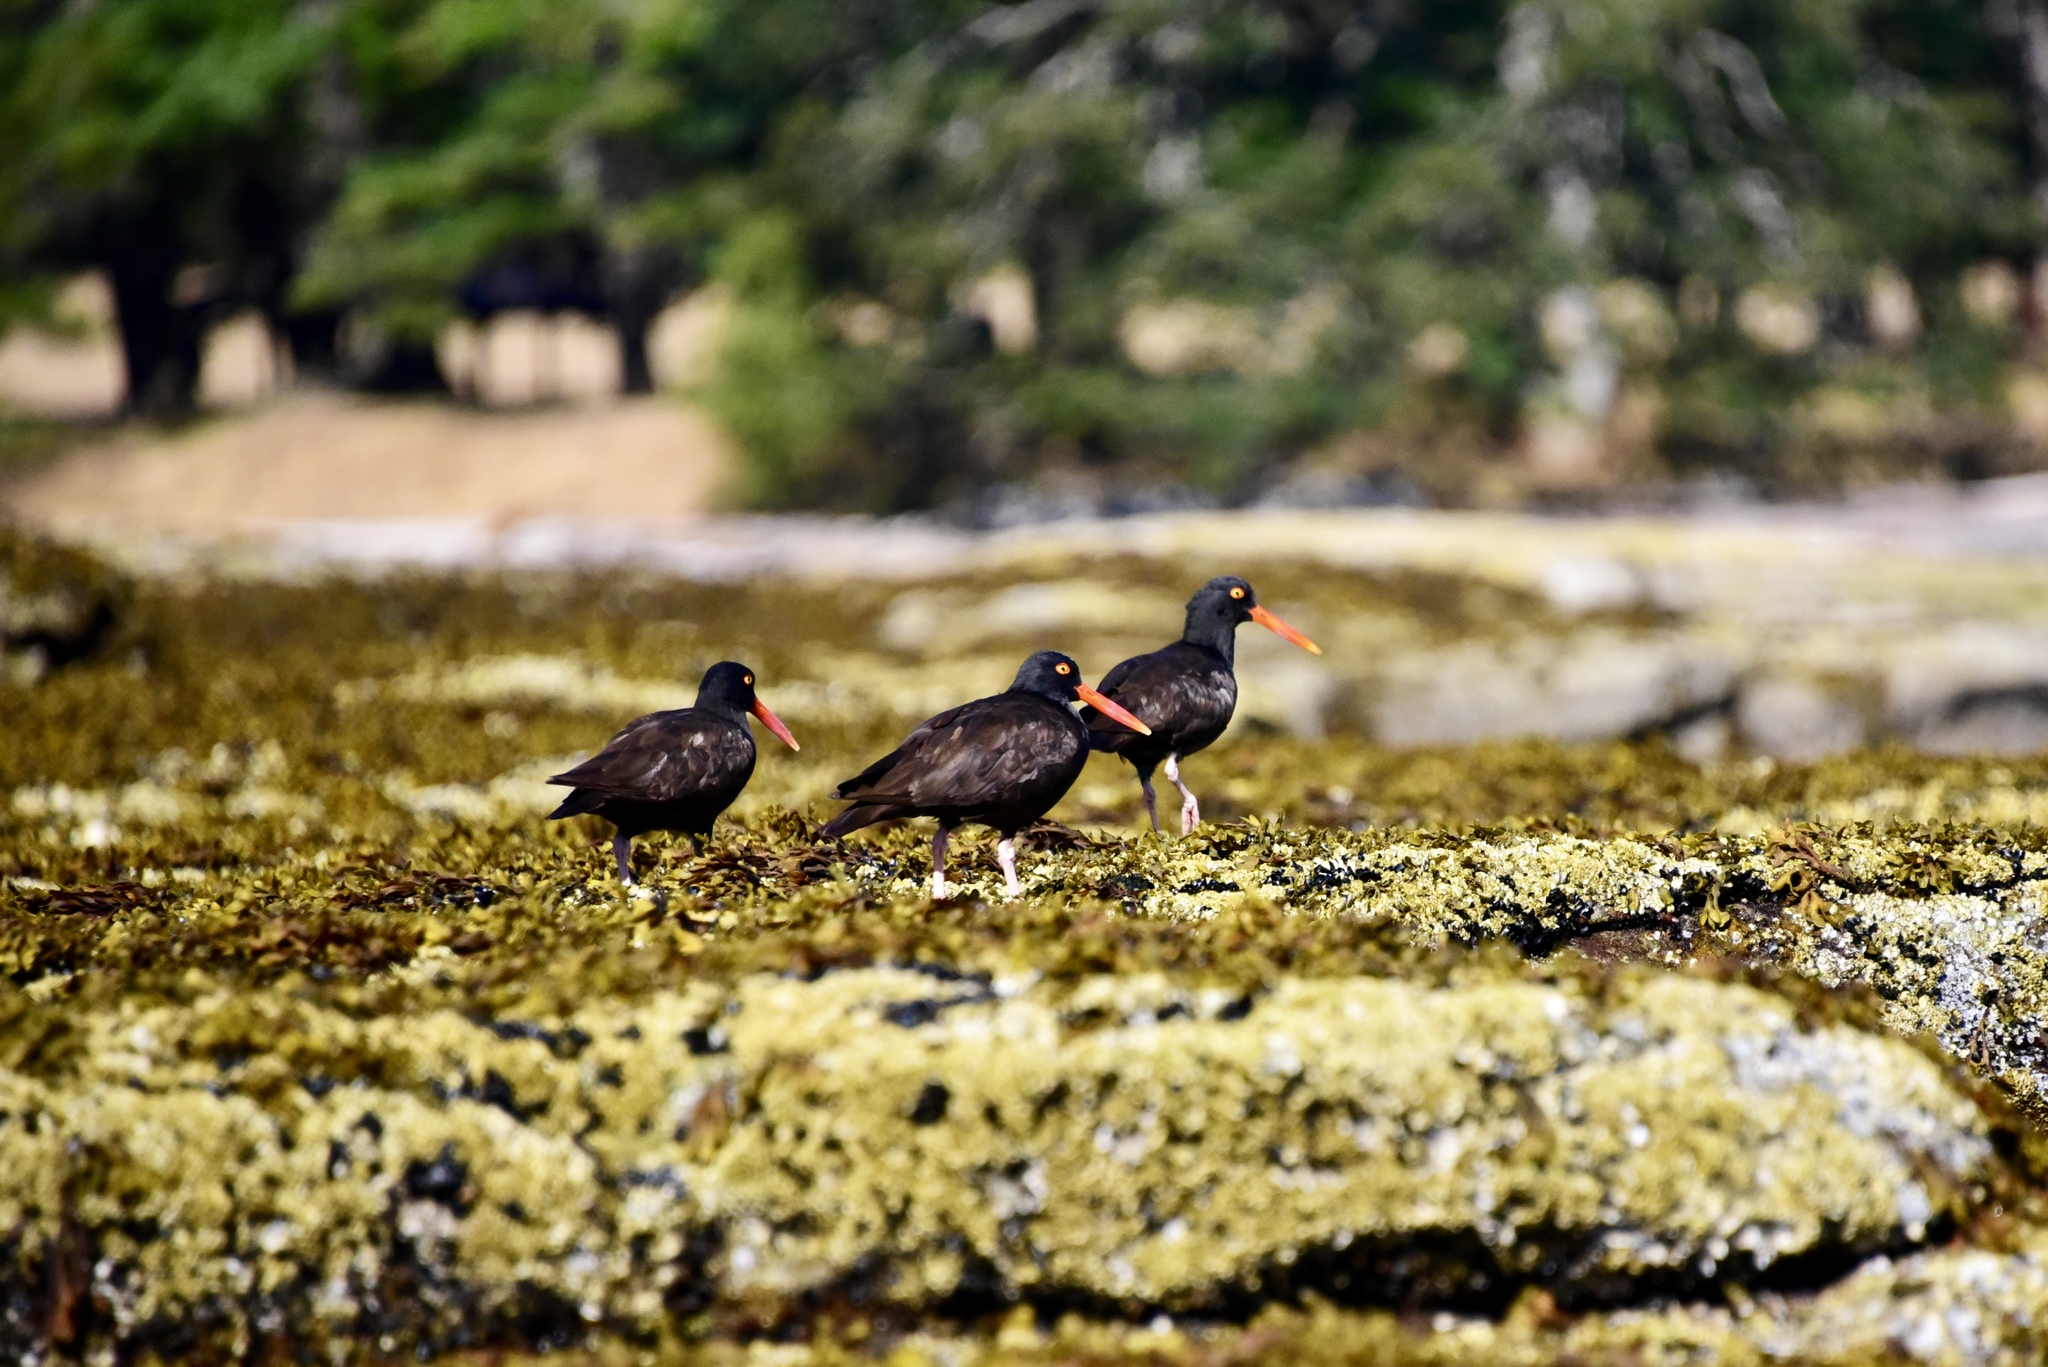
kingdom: Animalia
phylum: Chordata
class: Aves
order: Charadriiformes
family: Haematopodidae
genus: Haematopus
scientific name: Haematopus bachmani
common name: Black oystercatcher
